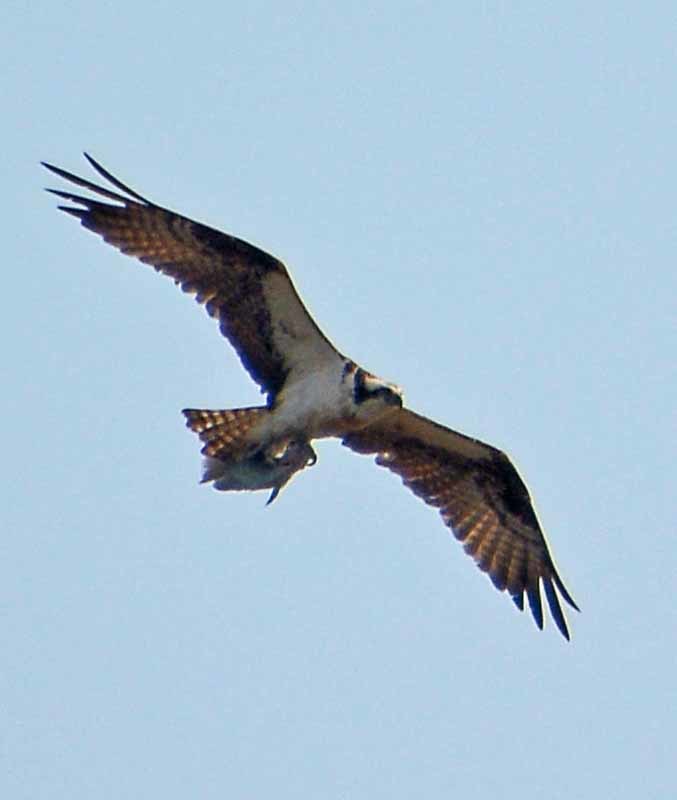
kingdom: Animalia
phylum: Chordata
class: Aves
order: Accipitriformes
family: Pandionidae
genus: Pandion
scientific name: Pandion haliaetus
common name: Osprey
